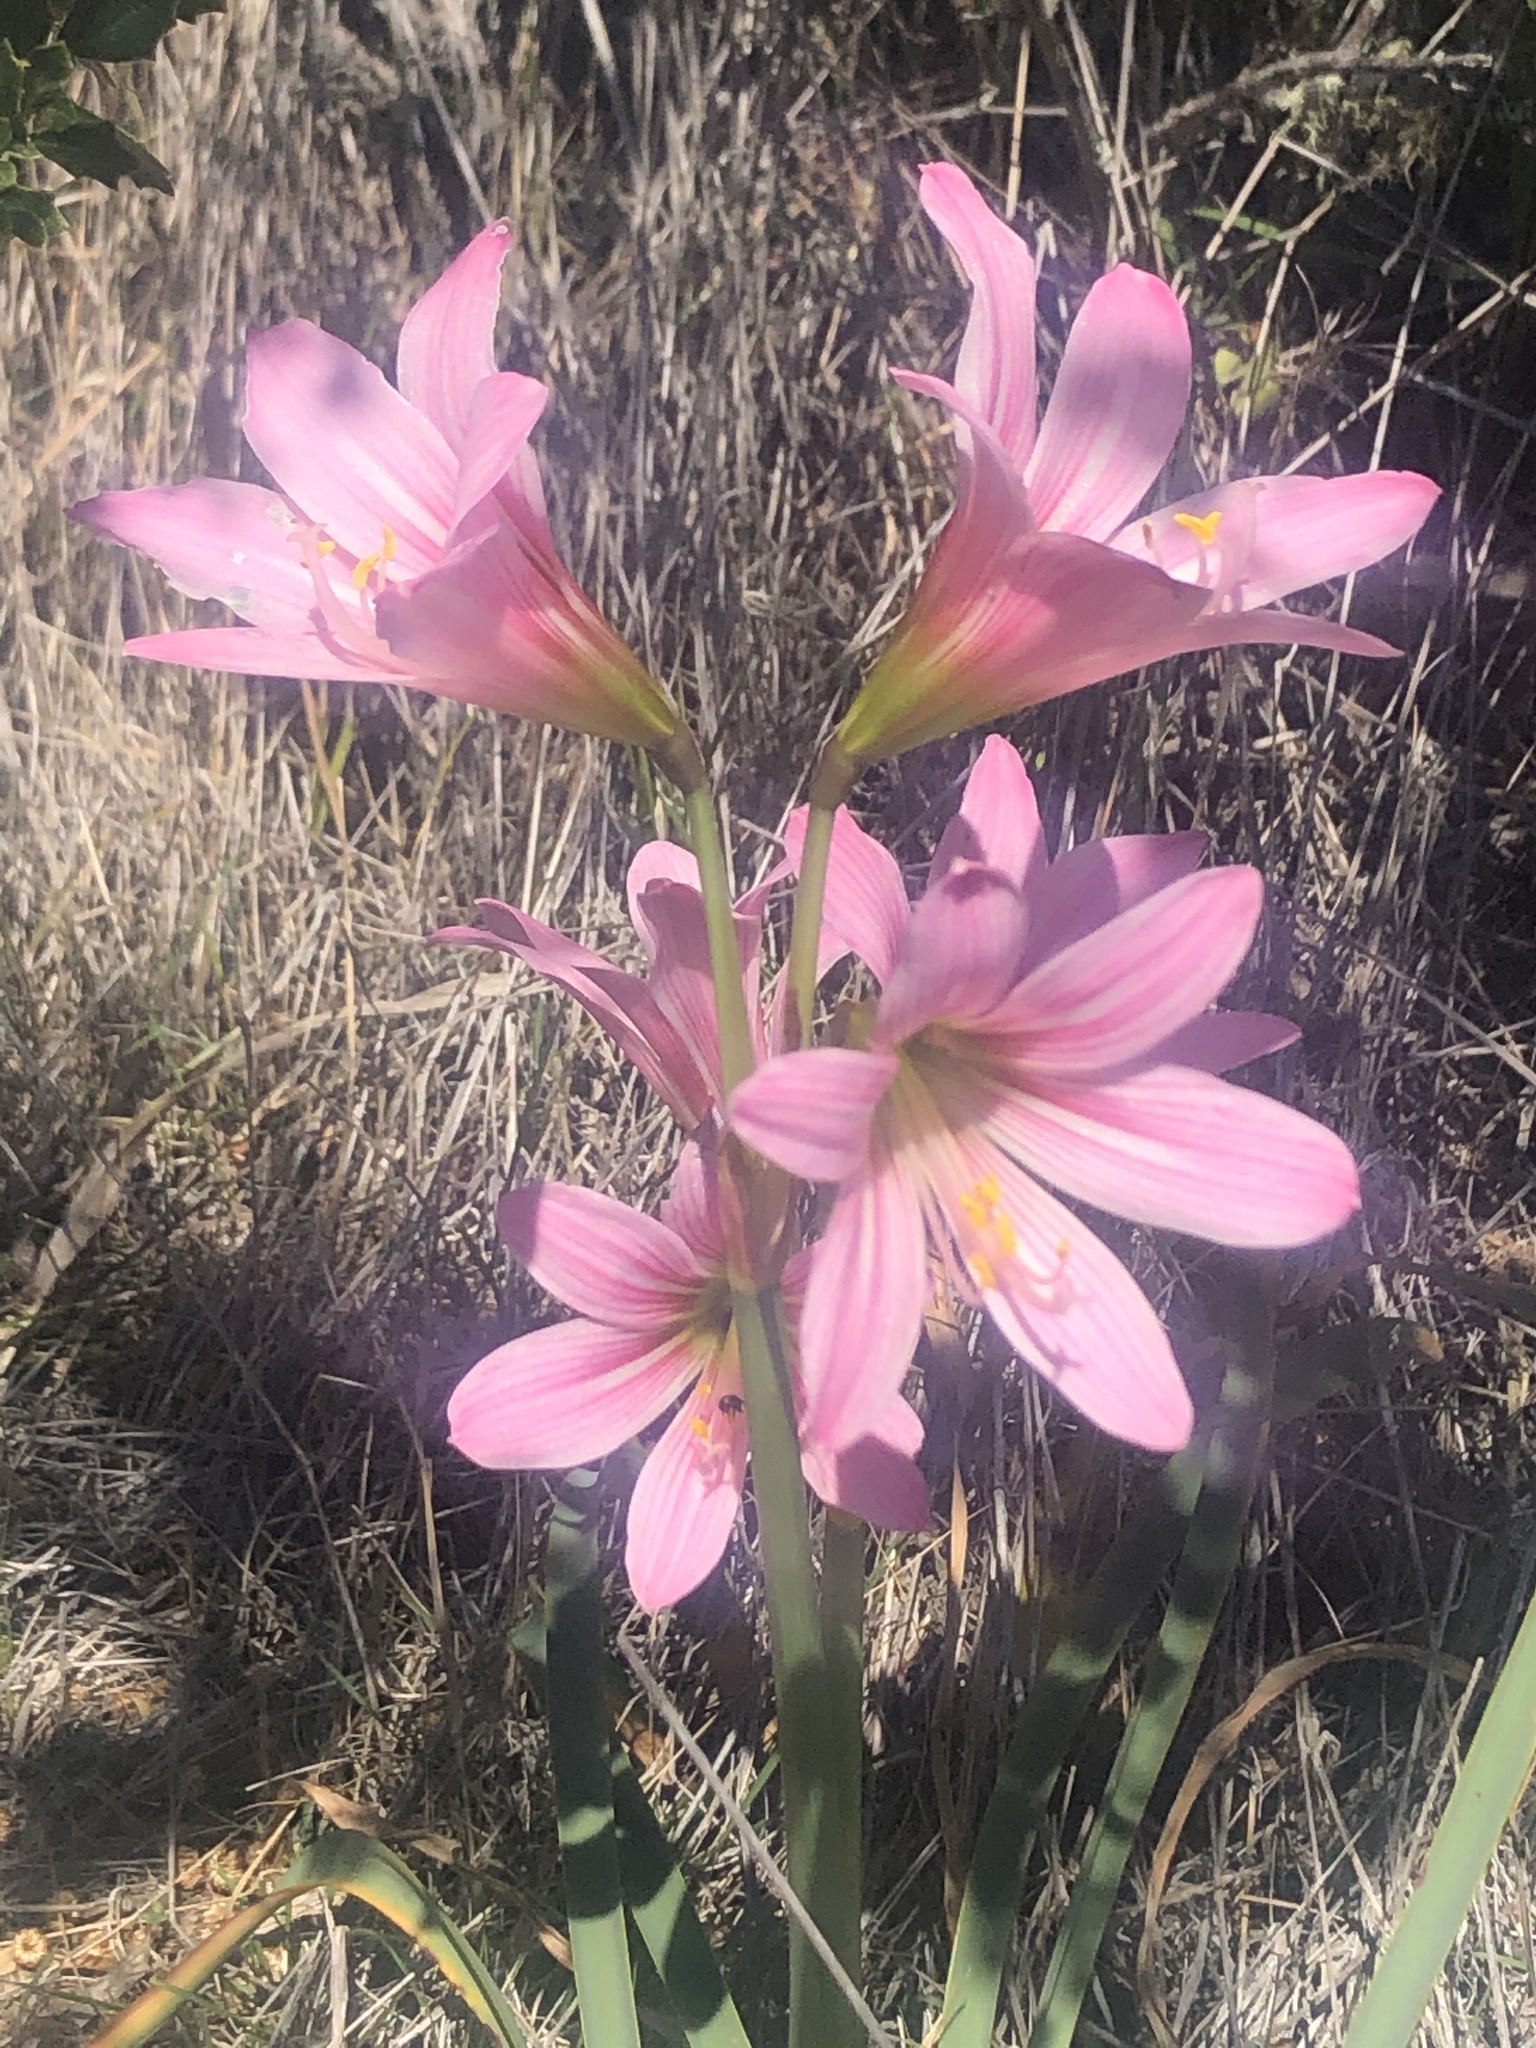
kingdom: Plantae
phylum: Tracheophyta
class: Liliopsida
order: Asparagales
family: Amaryllidaceae
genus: Amaryllis
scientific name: Amaryllis belladonna
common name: Jersey lily
